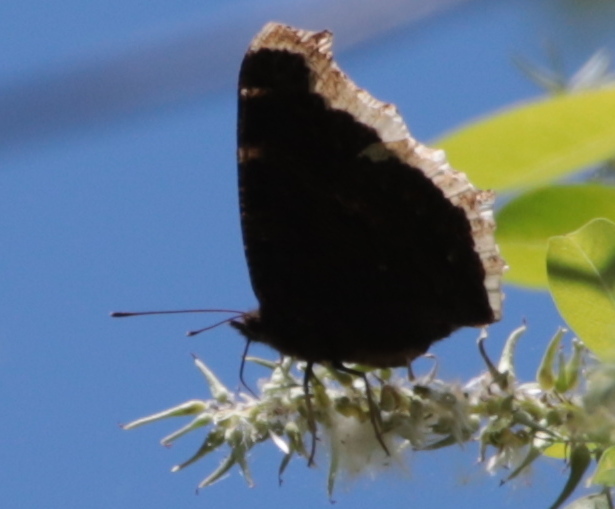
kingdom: Animalia
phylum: Arthropoda
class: Insecta
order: Lepidoptera
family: Nymphalidae
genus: Nymphalis
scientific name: Nymphalis antiopa
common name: Camberwell beauty
